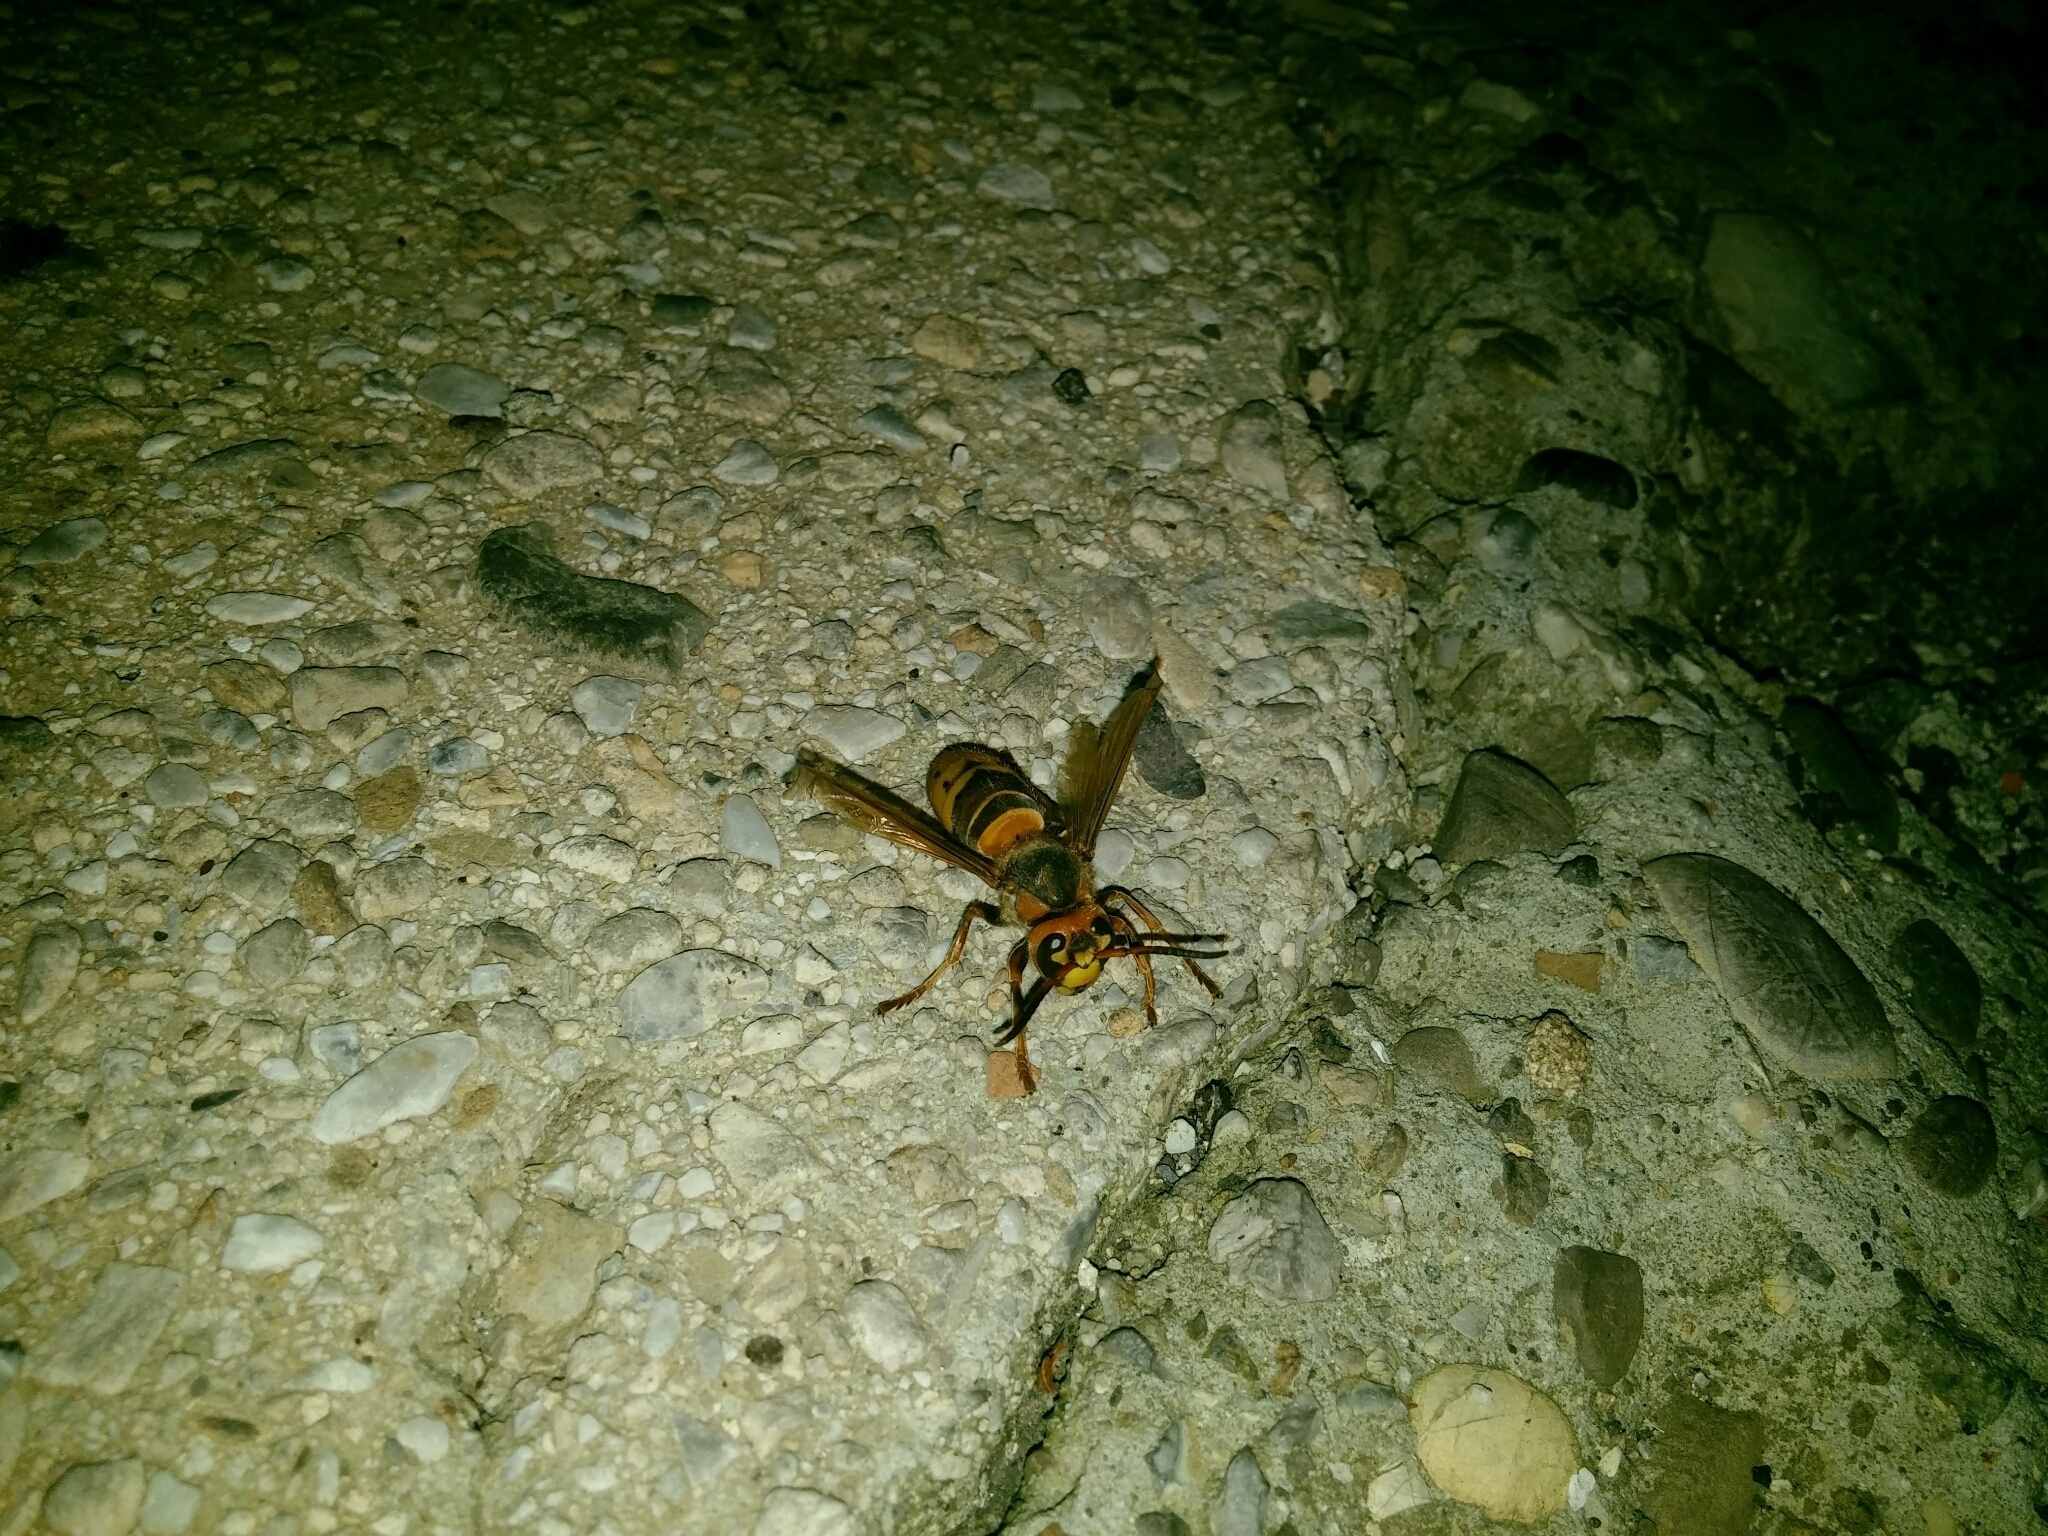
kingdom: Animalia
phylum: Arthropoda
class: Insecta
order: Hymenoptera
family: Vespidae
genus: Vespa
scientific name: Vespa crabro
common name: Hornet
